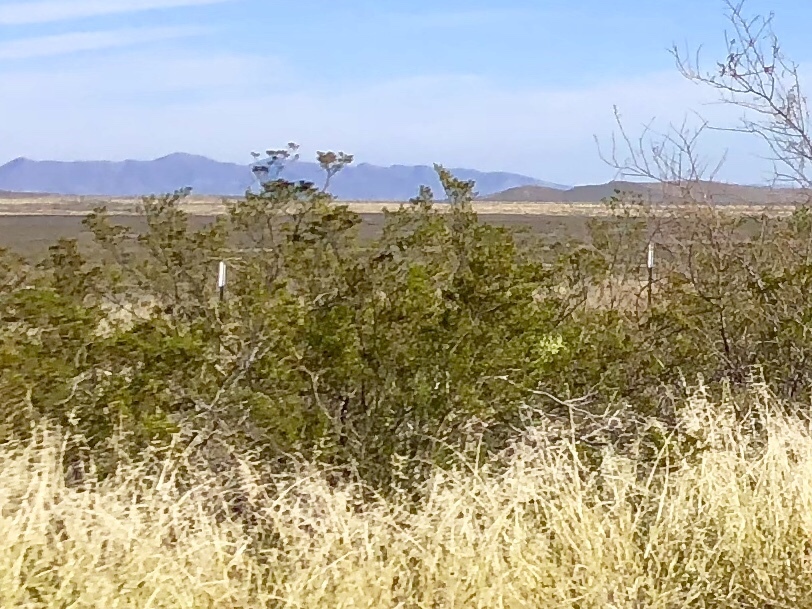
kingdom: Plantae
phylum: Tracheophyta
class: Magnoliopsida
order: Zygophyllales
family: Zygophyllaceae
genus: Larrea
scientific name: Larrea tridentata
